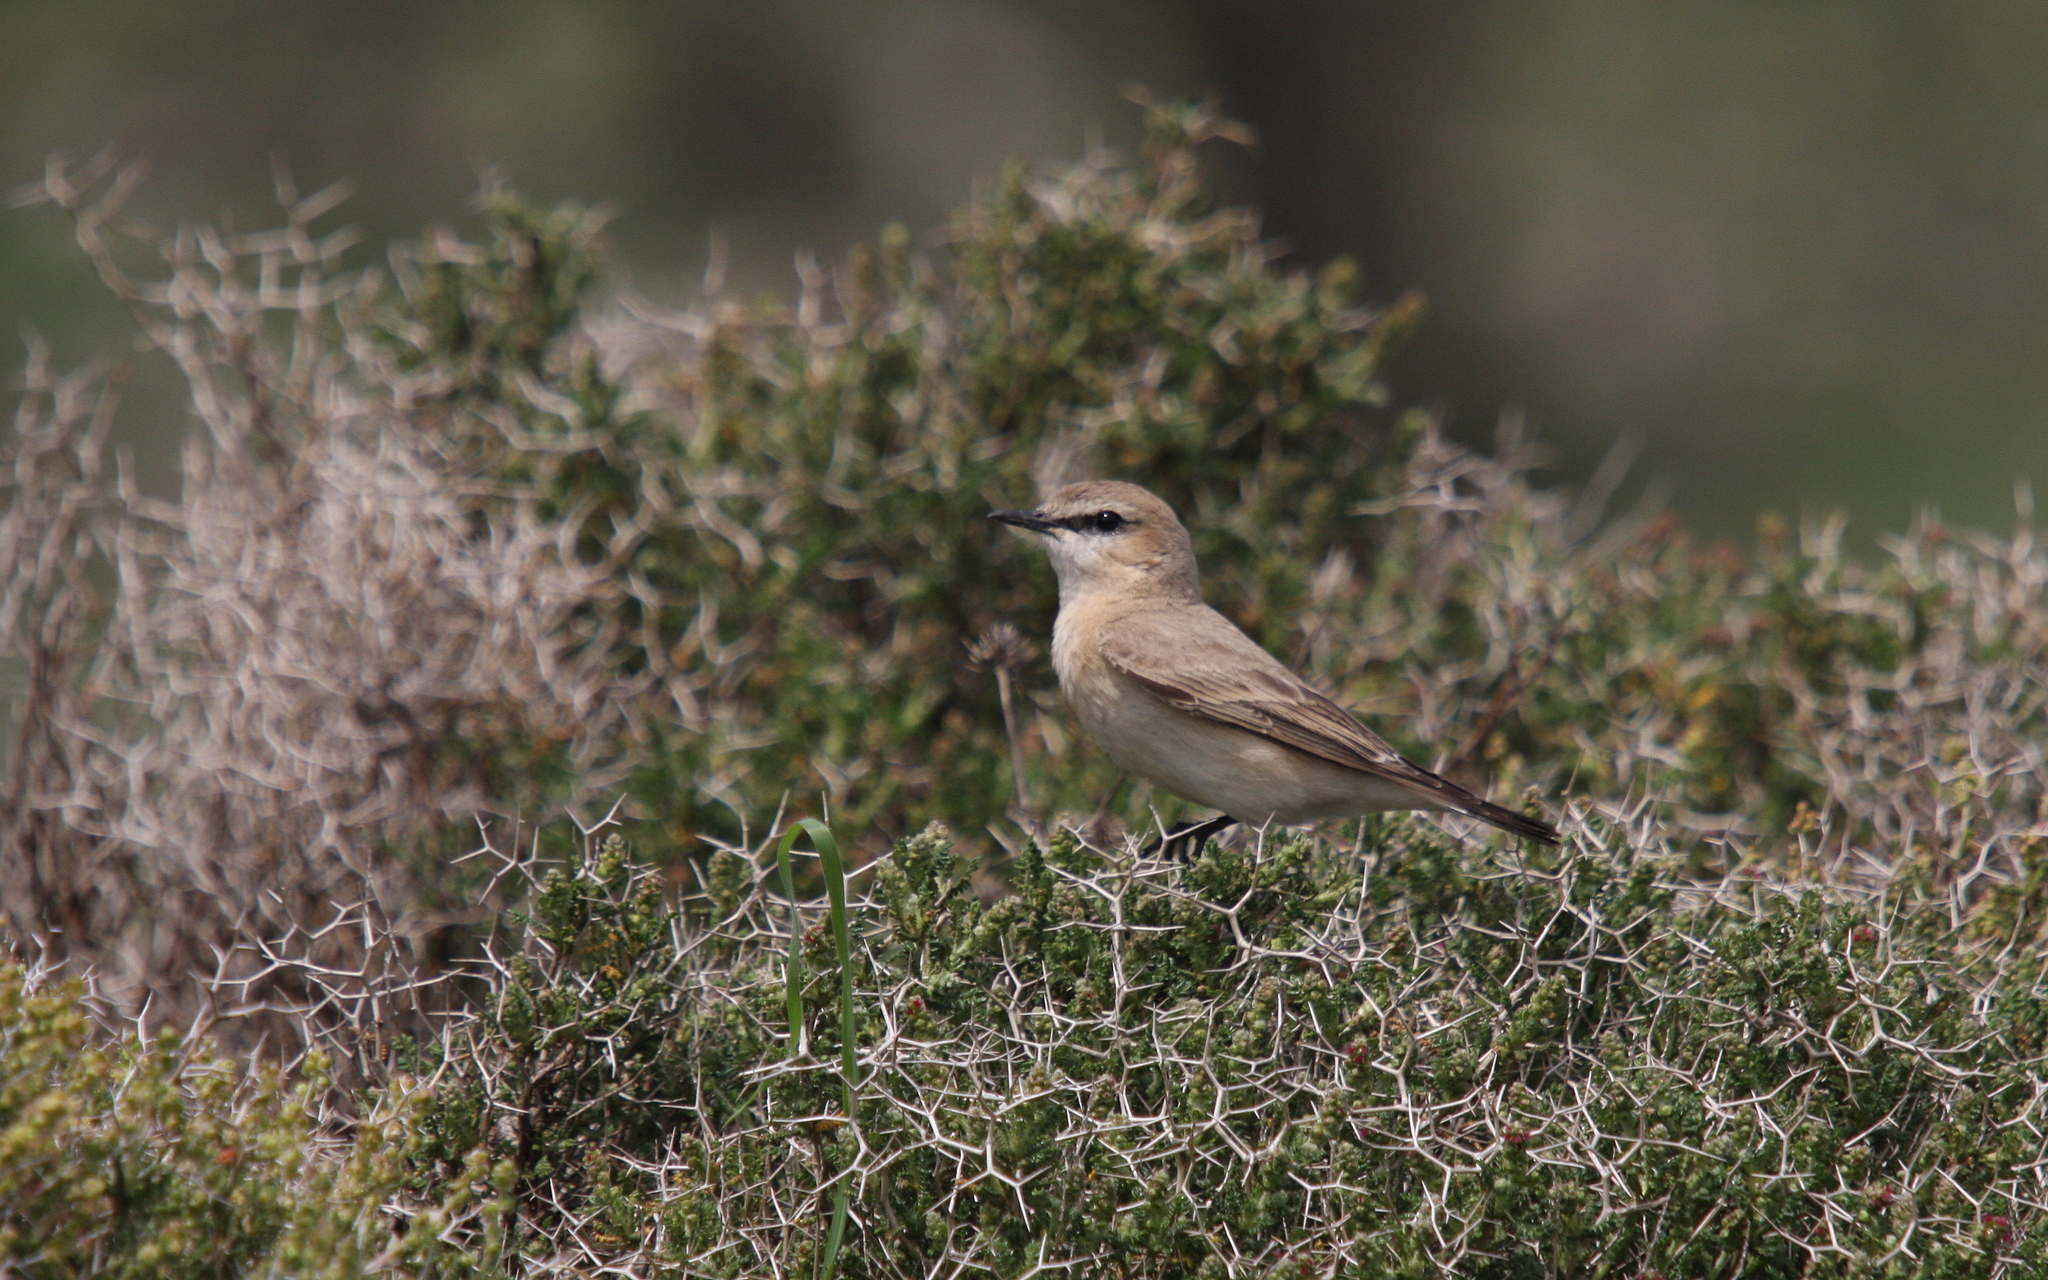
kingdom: Animalia
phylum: Chordata
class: Aves
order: Passeriformes
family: Muscicapidae
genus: Oenanthe
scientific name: Oenanthe isabellina
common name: Isabelline wheatear
